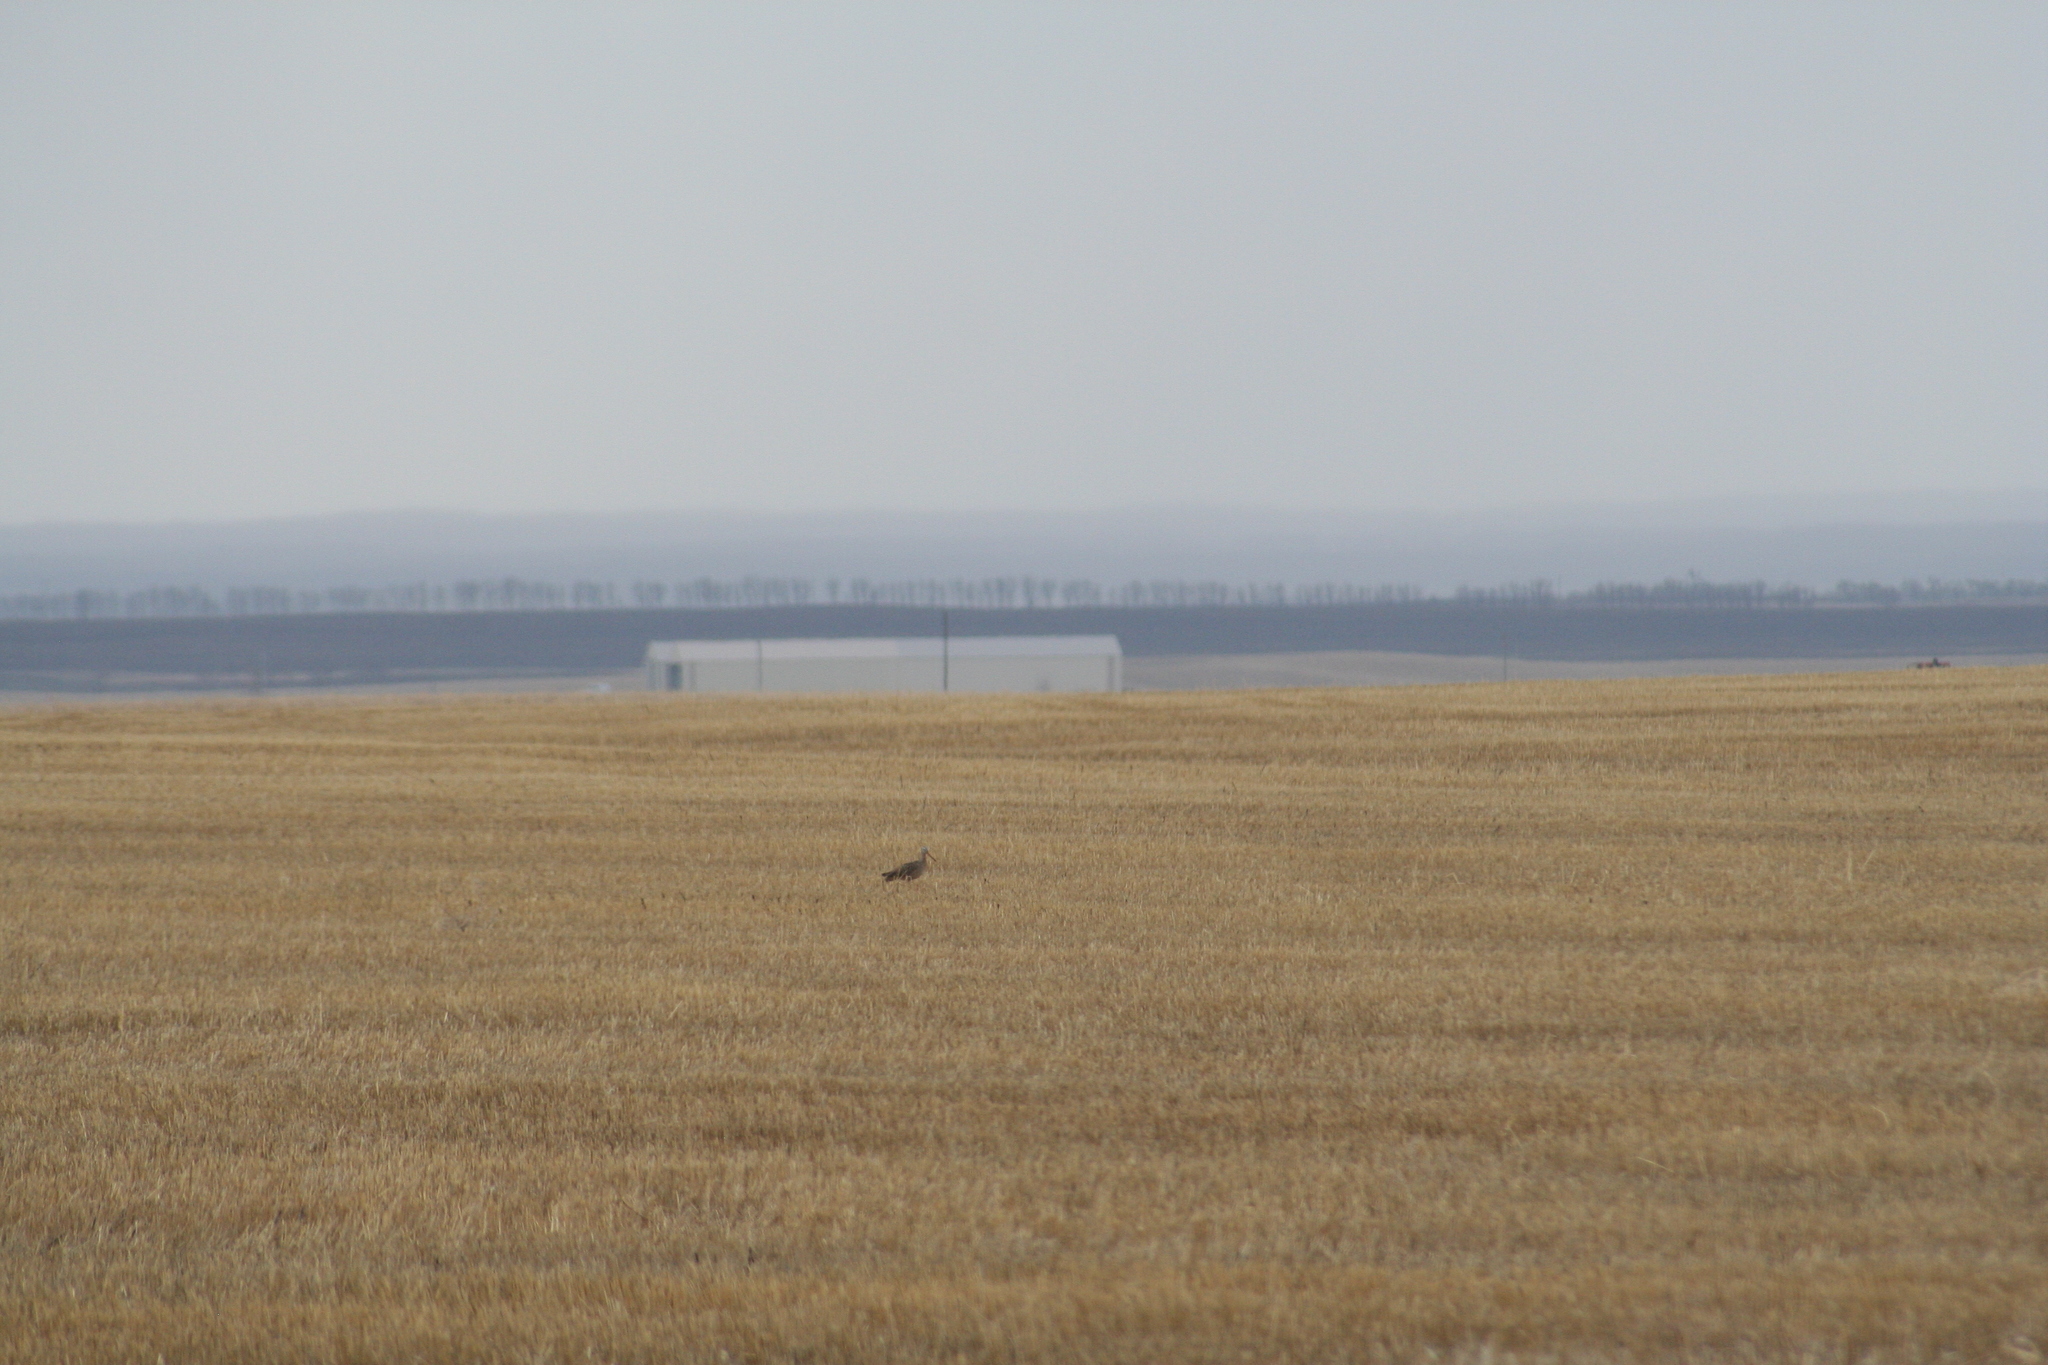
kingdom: Animalia
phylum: Chordata
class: Aves
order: Charadriiformes
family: Scolopacidae
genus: Limosa
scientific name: Limosa fedoa
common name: Marbled godwit
